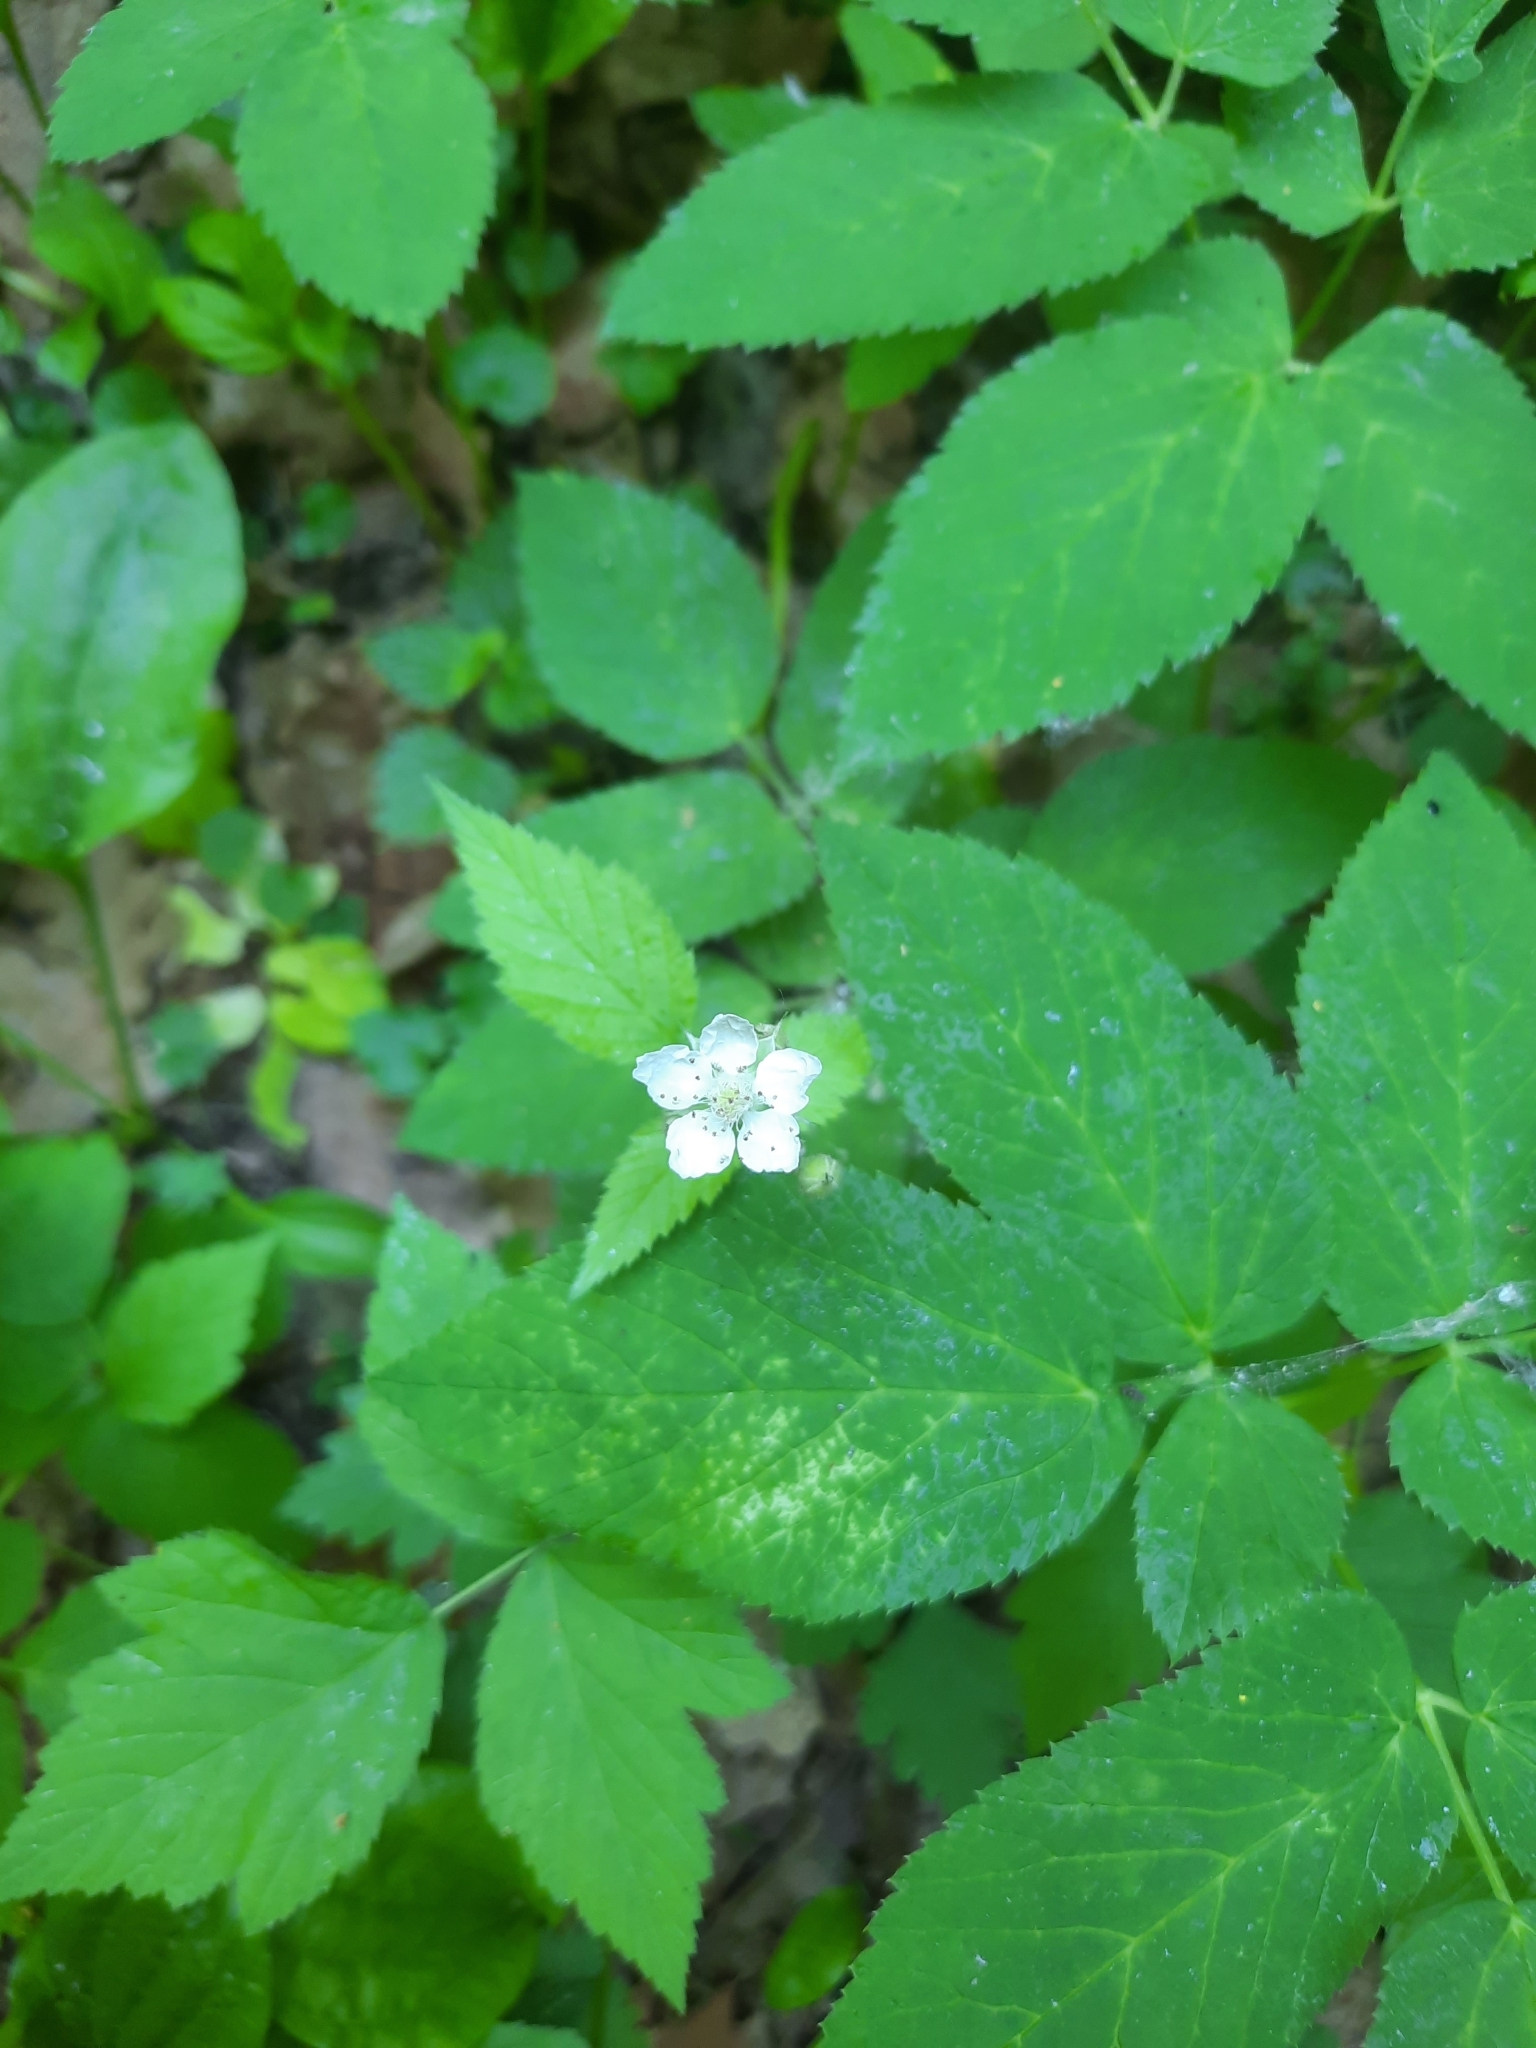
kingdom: Plantae
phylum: Tracheophyta
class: Magnoliopsida
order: Rosales
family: Rosaceae
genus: Rubus
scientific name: Rubus caesius
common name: Dewberry
